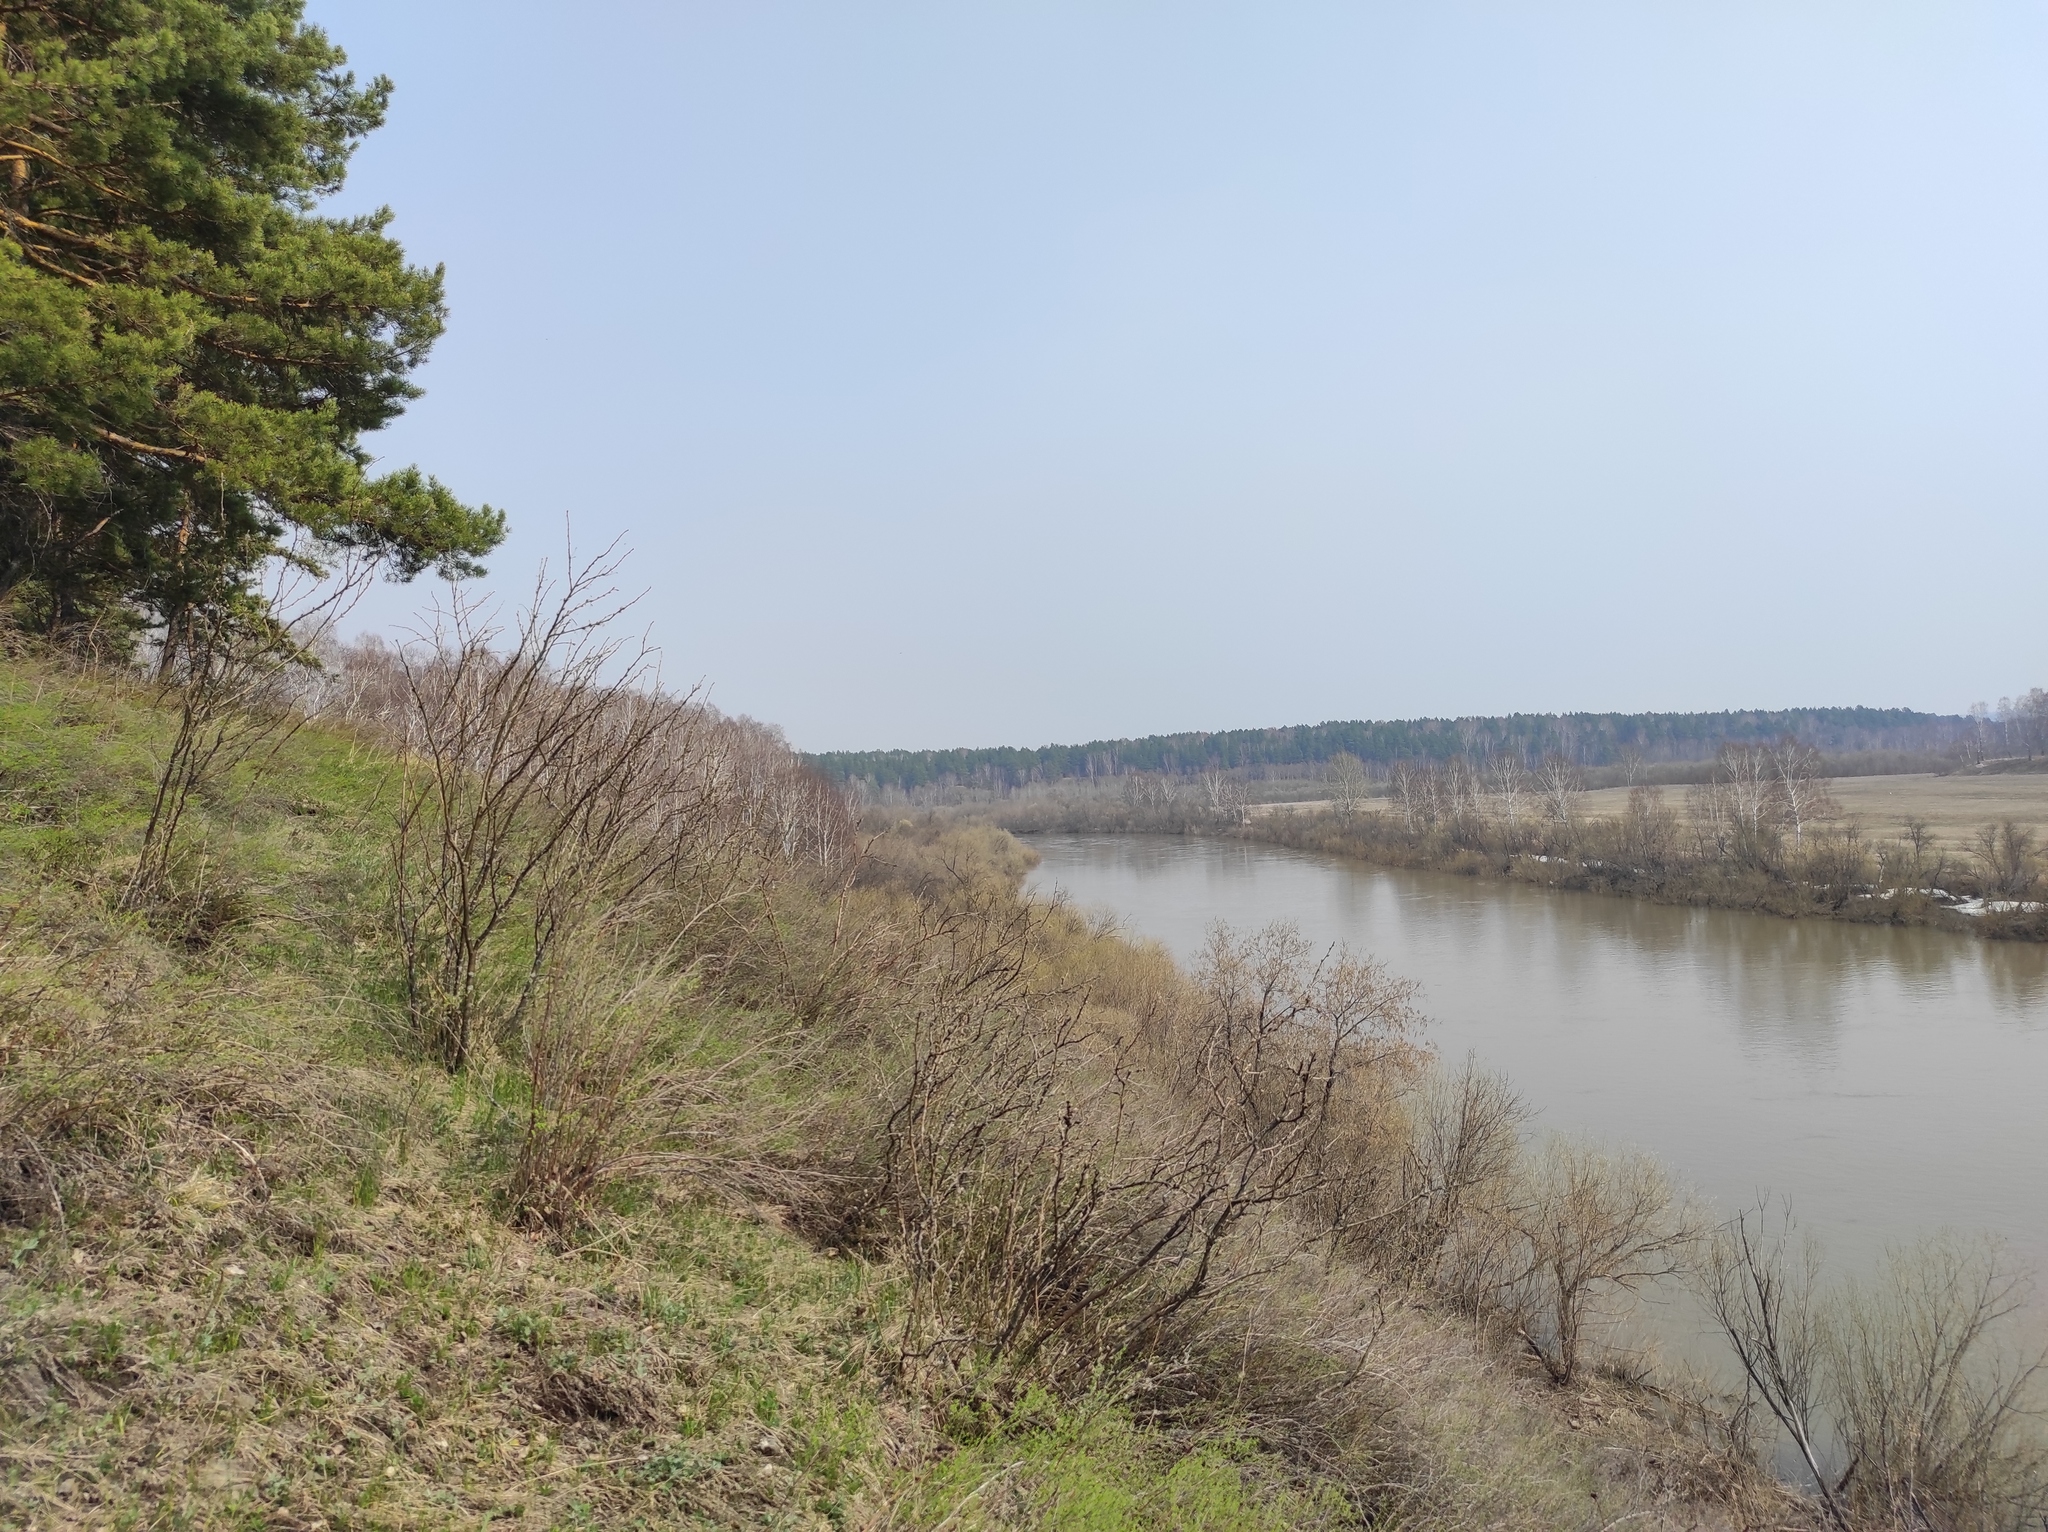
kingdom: Plantae
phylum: Tracheophyta
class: Magnoliopsida
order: Fabales
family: Fabaceae
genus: Caragana
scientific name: Caragana arborescens
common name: Siberian peashrub
